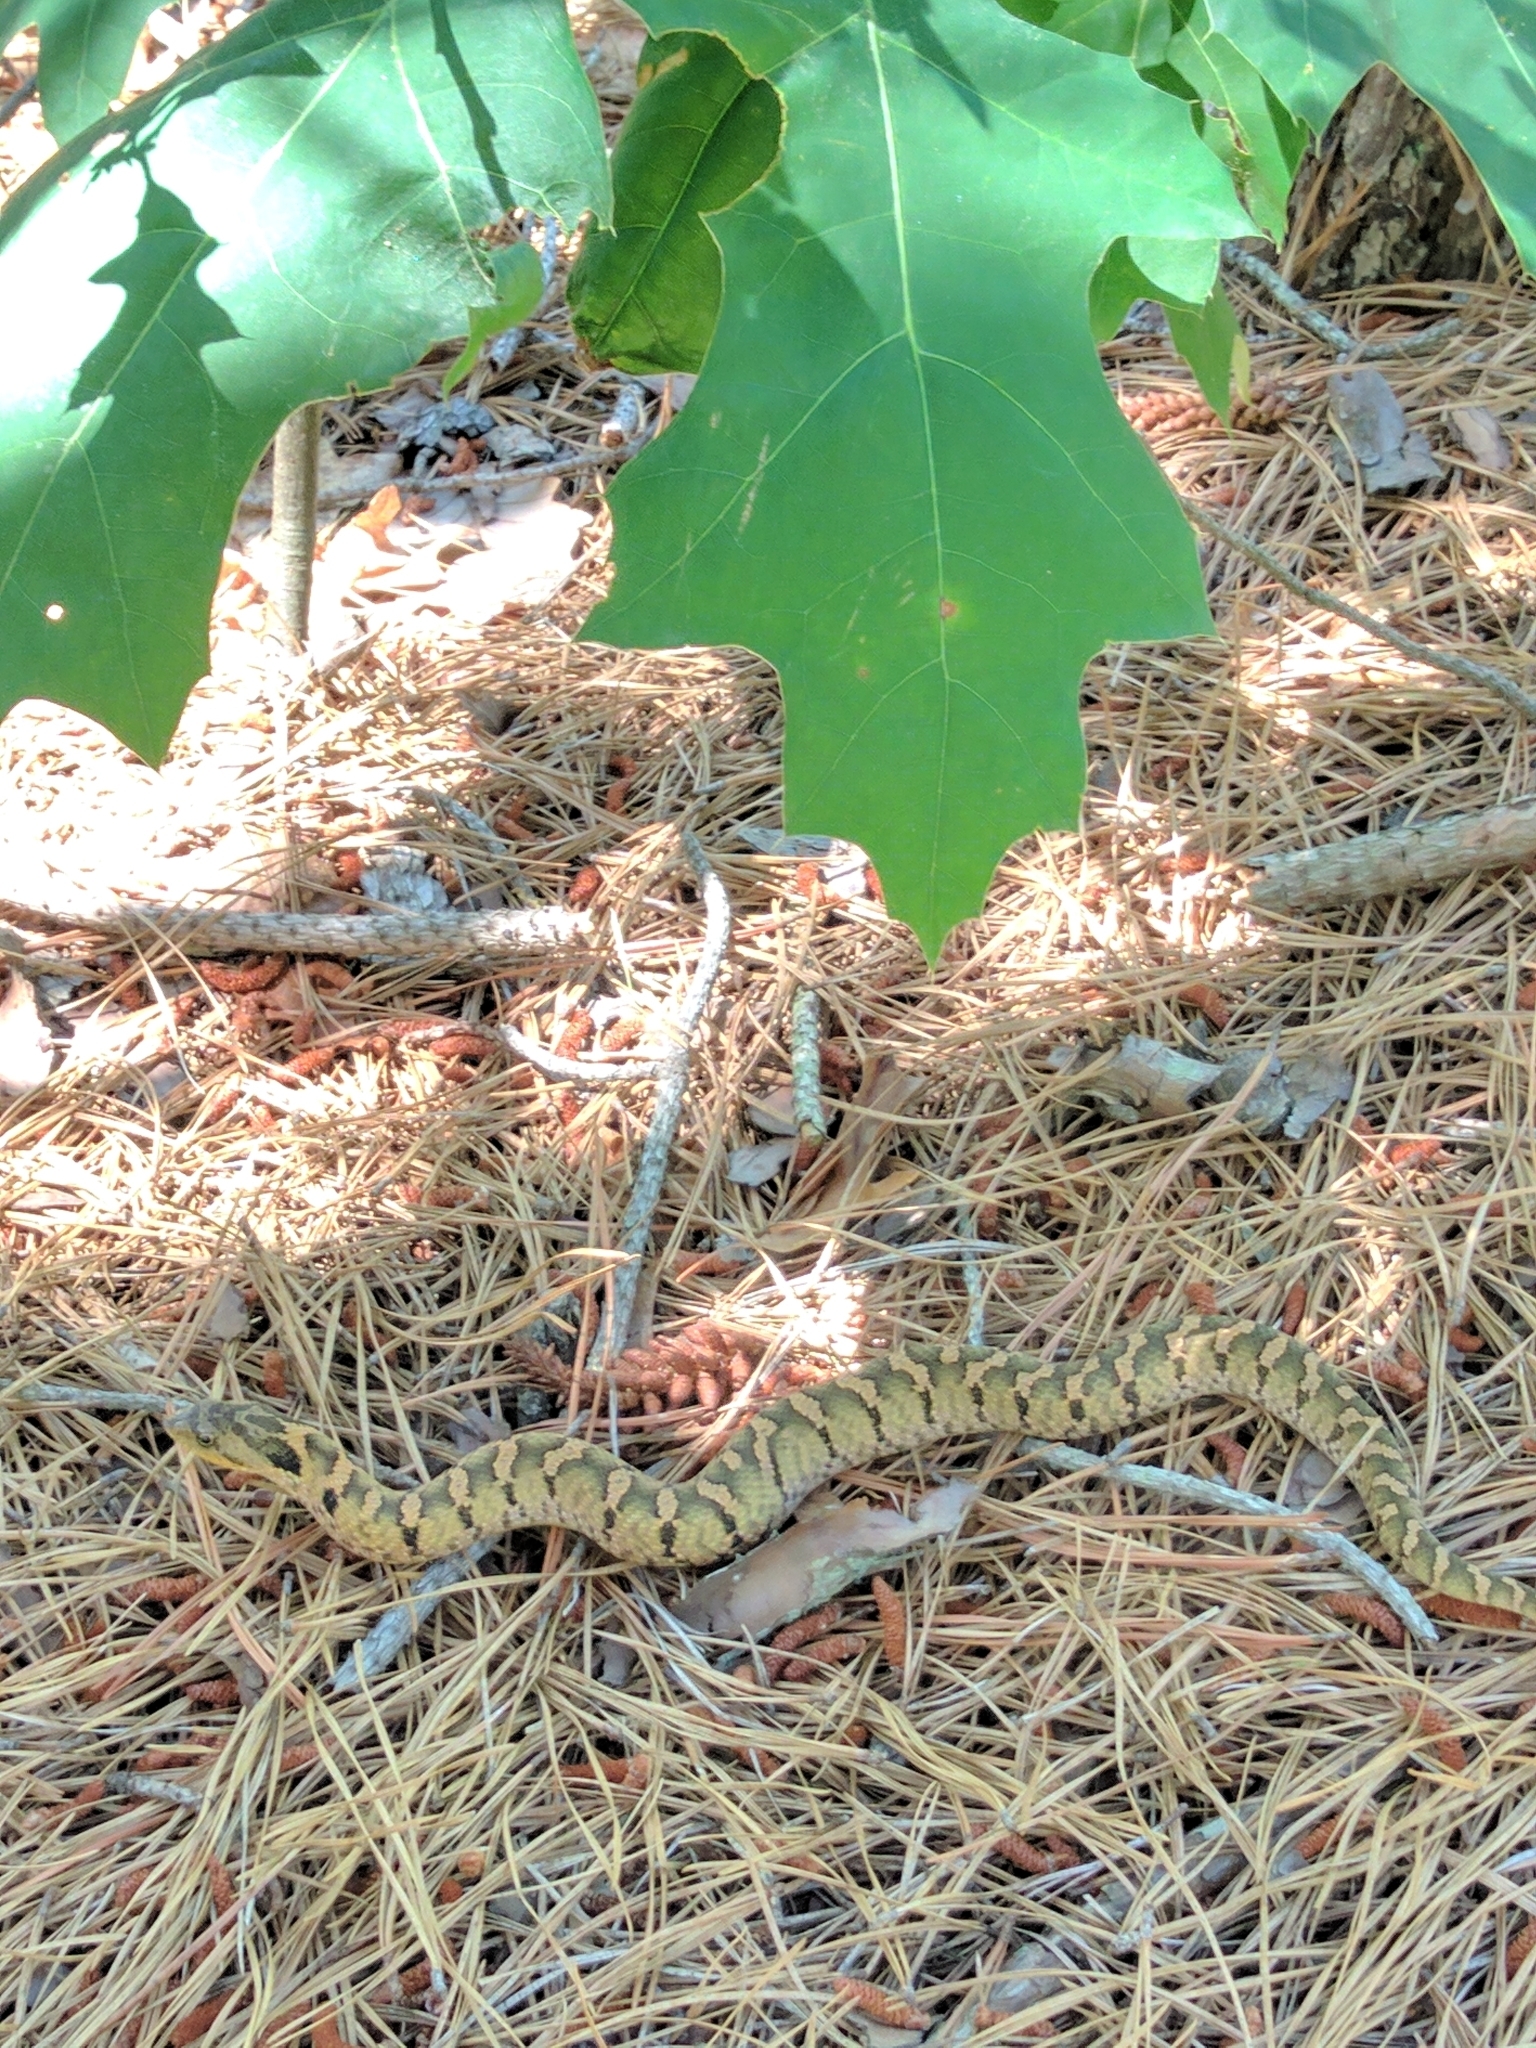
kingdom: Animalia
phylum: Chordata
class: Squamata
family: Colubridae
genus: Heterodon
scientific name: Heterodon platirhinos
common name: Eastern hognose snake
